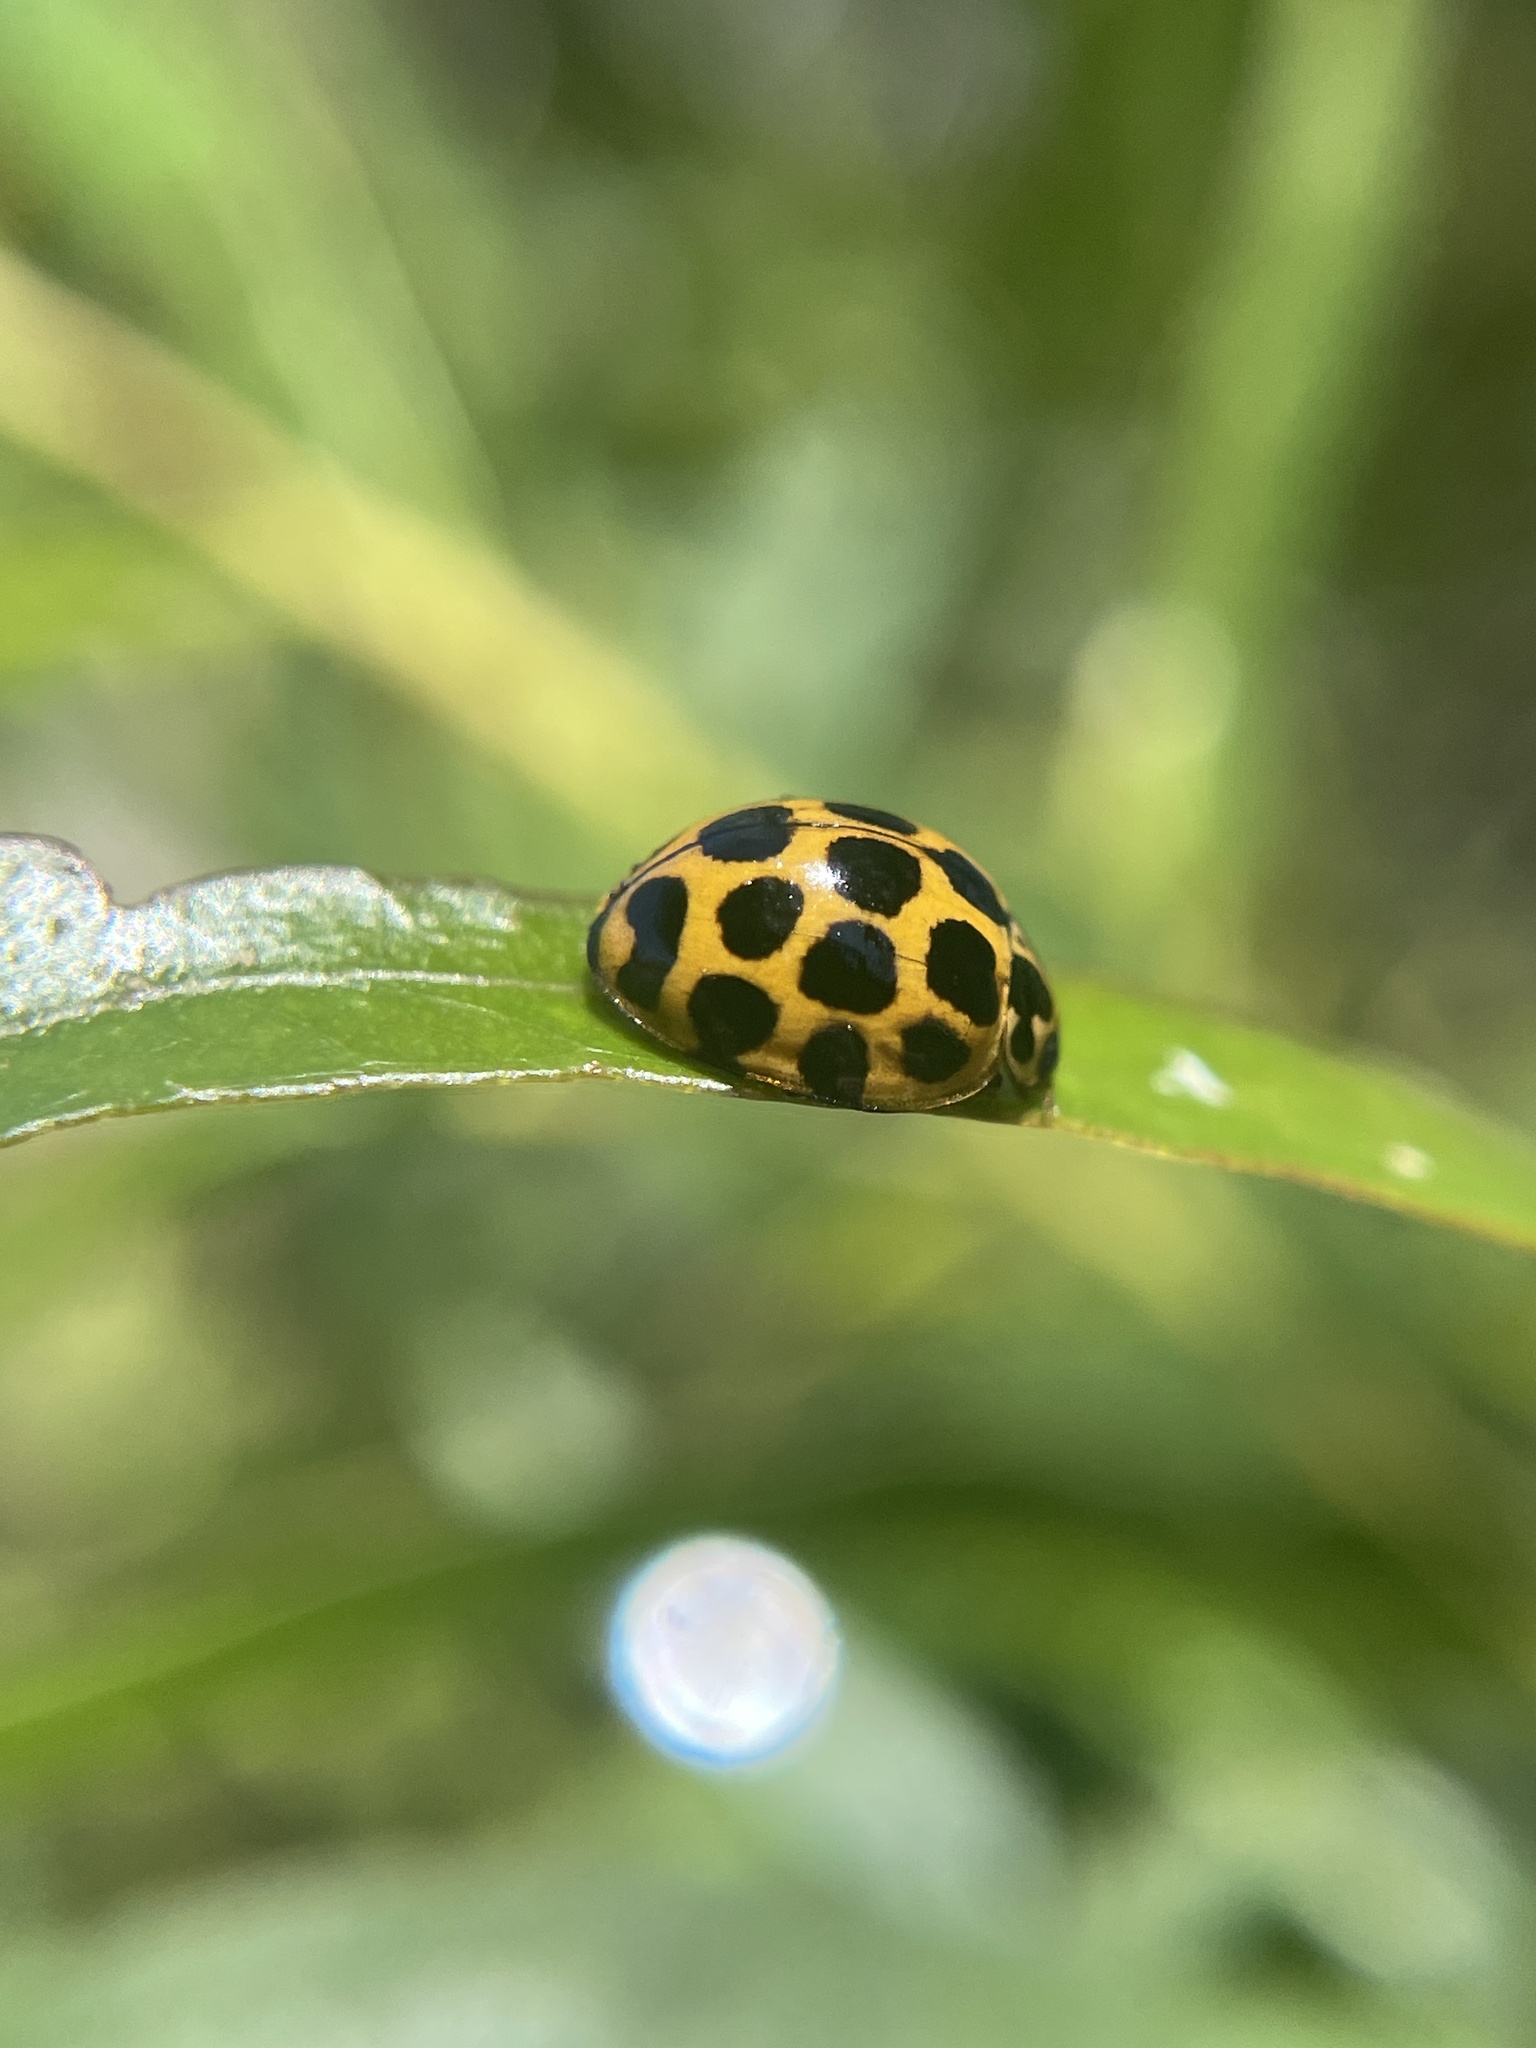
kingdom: Animalia
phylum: Arthropoda
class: Insecta
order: Coleoptera
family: Coccinellidae
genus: Harmonia
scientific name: Harmonia conformis
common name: Common spotted ladybird beetle
